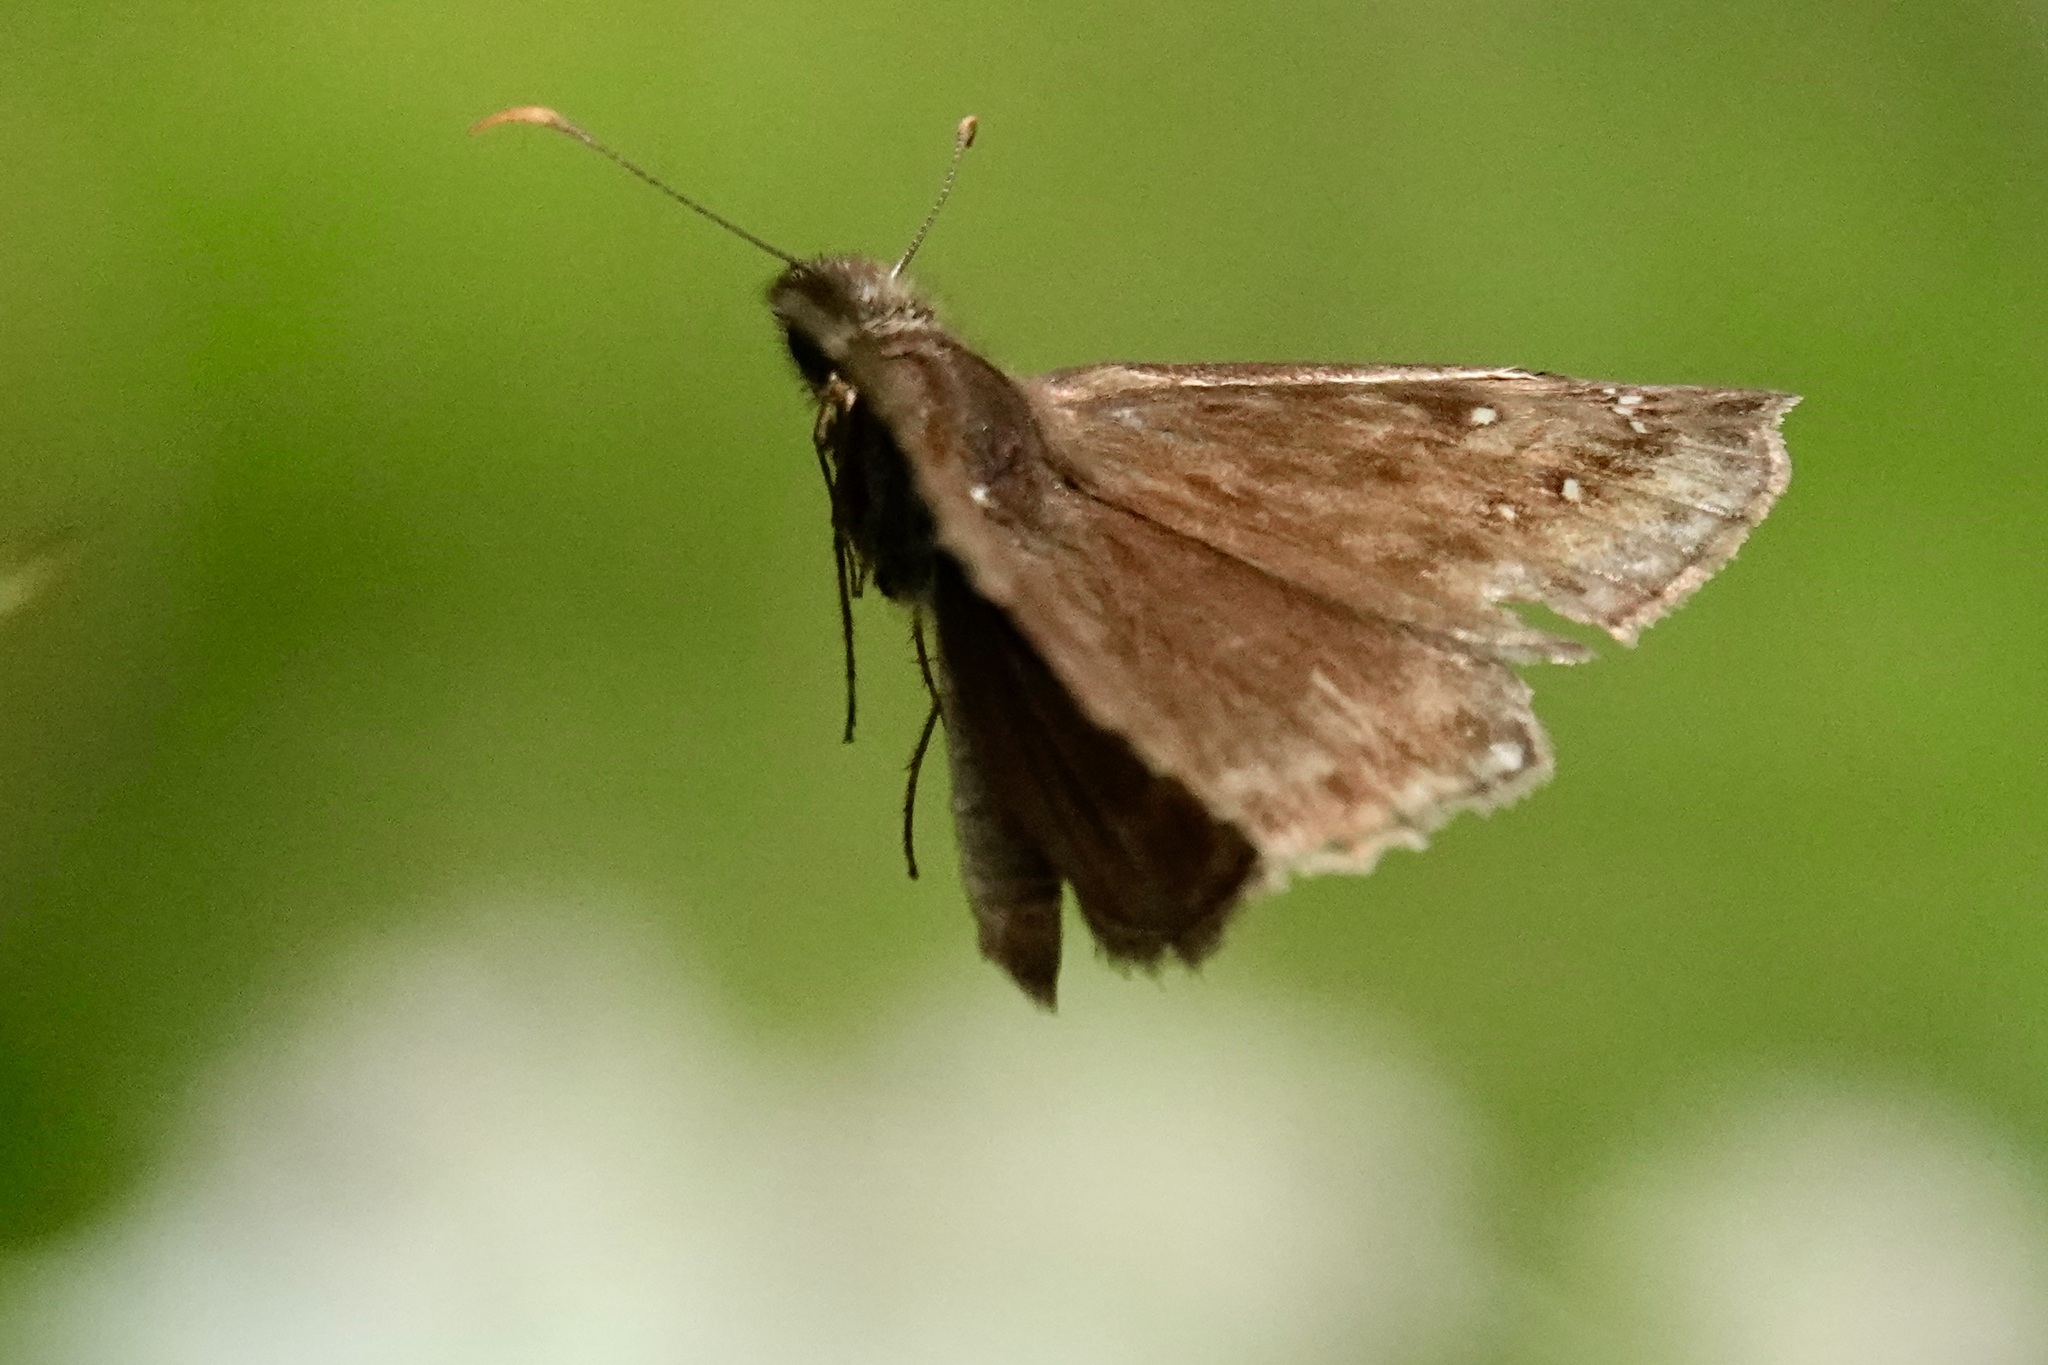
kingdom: Animalia
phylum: Arthropoda
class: Insecta
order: Lepidoptera
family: Hesperiidae
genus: Erynnis
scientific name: Erynnis horatius
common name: Horace's duskywing
